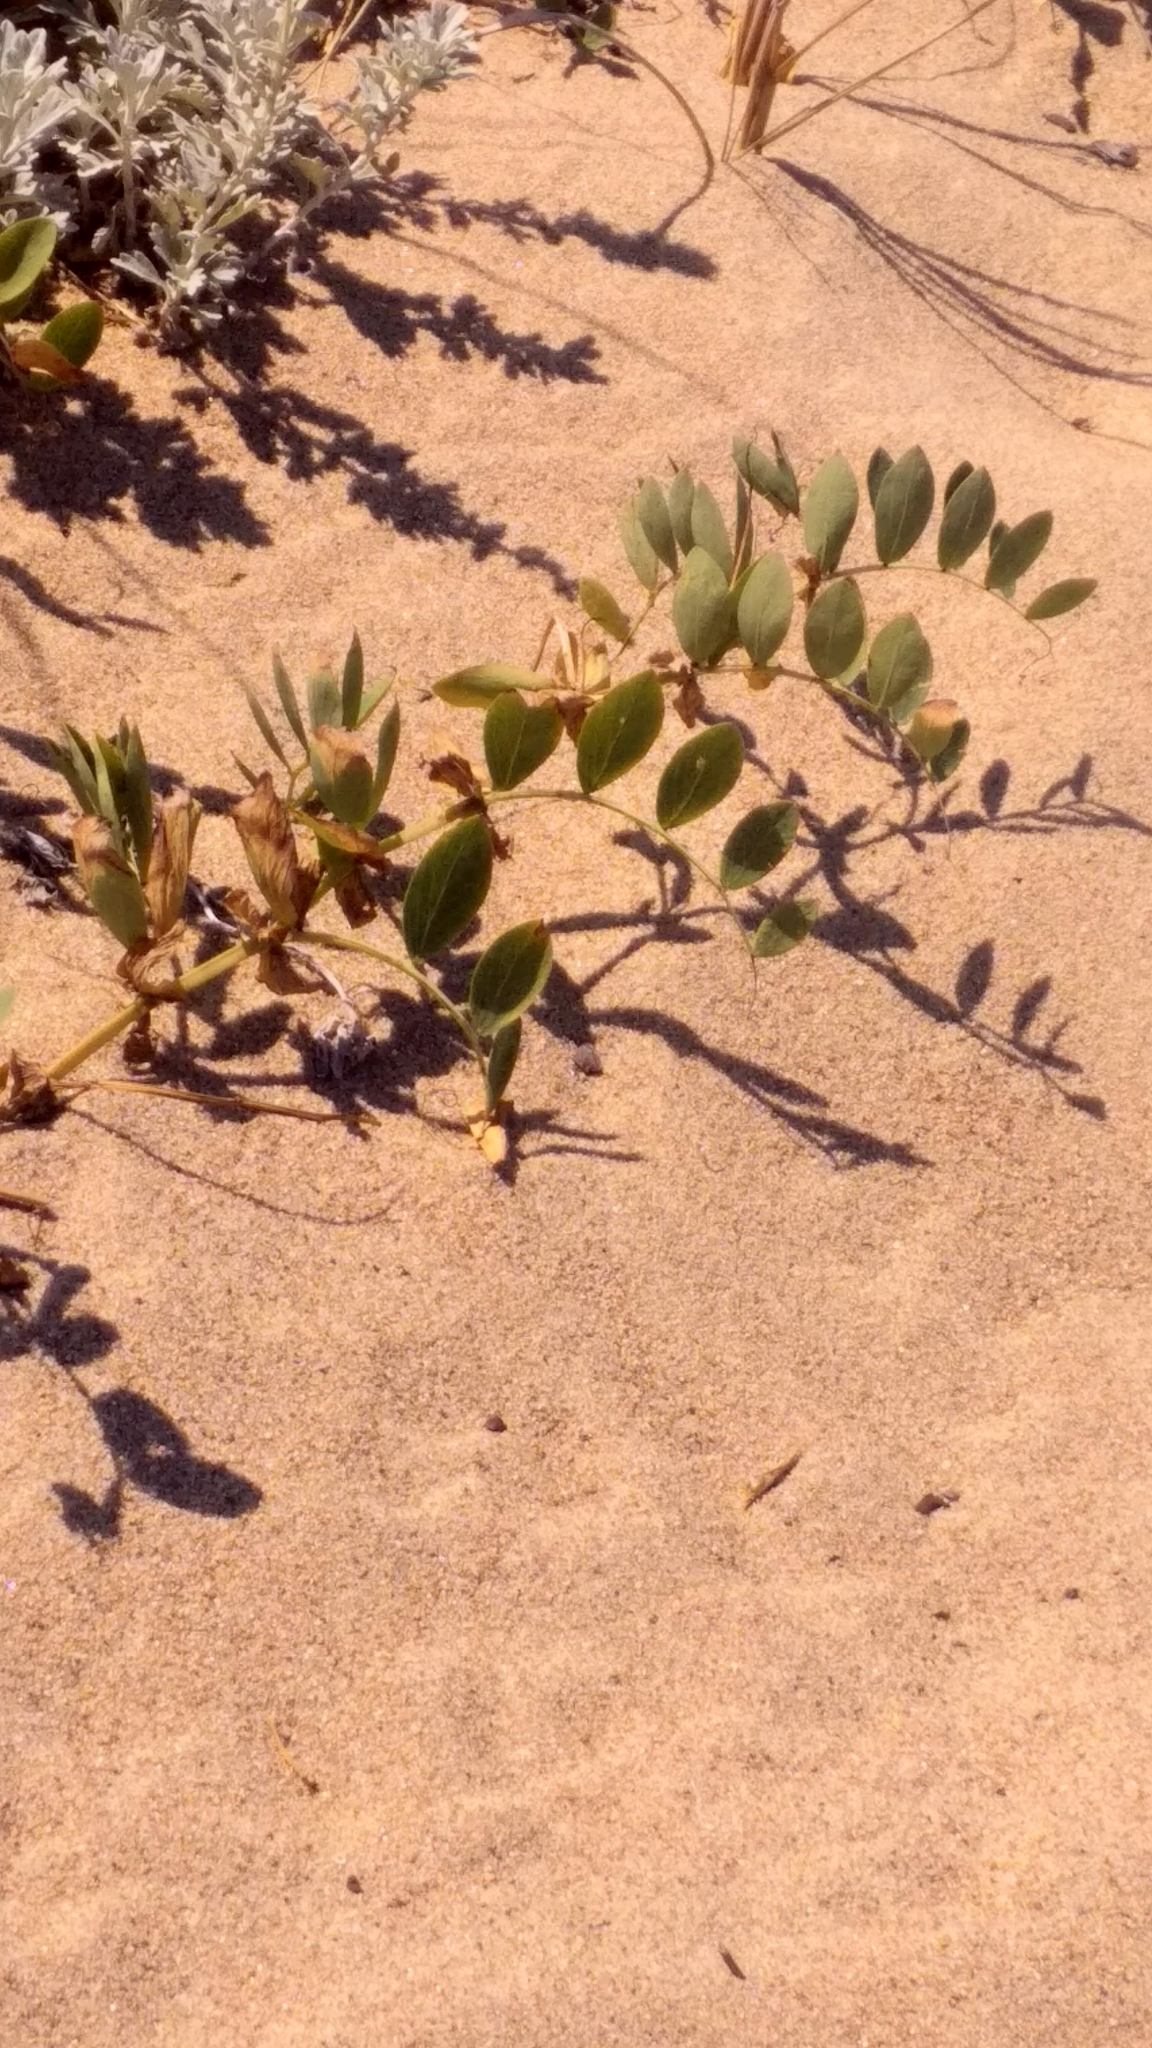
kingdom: Plantae
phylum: Tracheophyta
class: Magnoliopsida
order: Fabales
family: Fabaceae
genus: Lathyrus
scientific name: Lathyrus japonicus
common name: Sea pea
